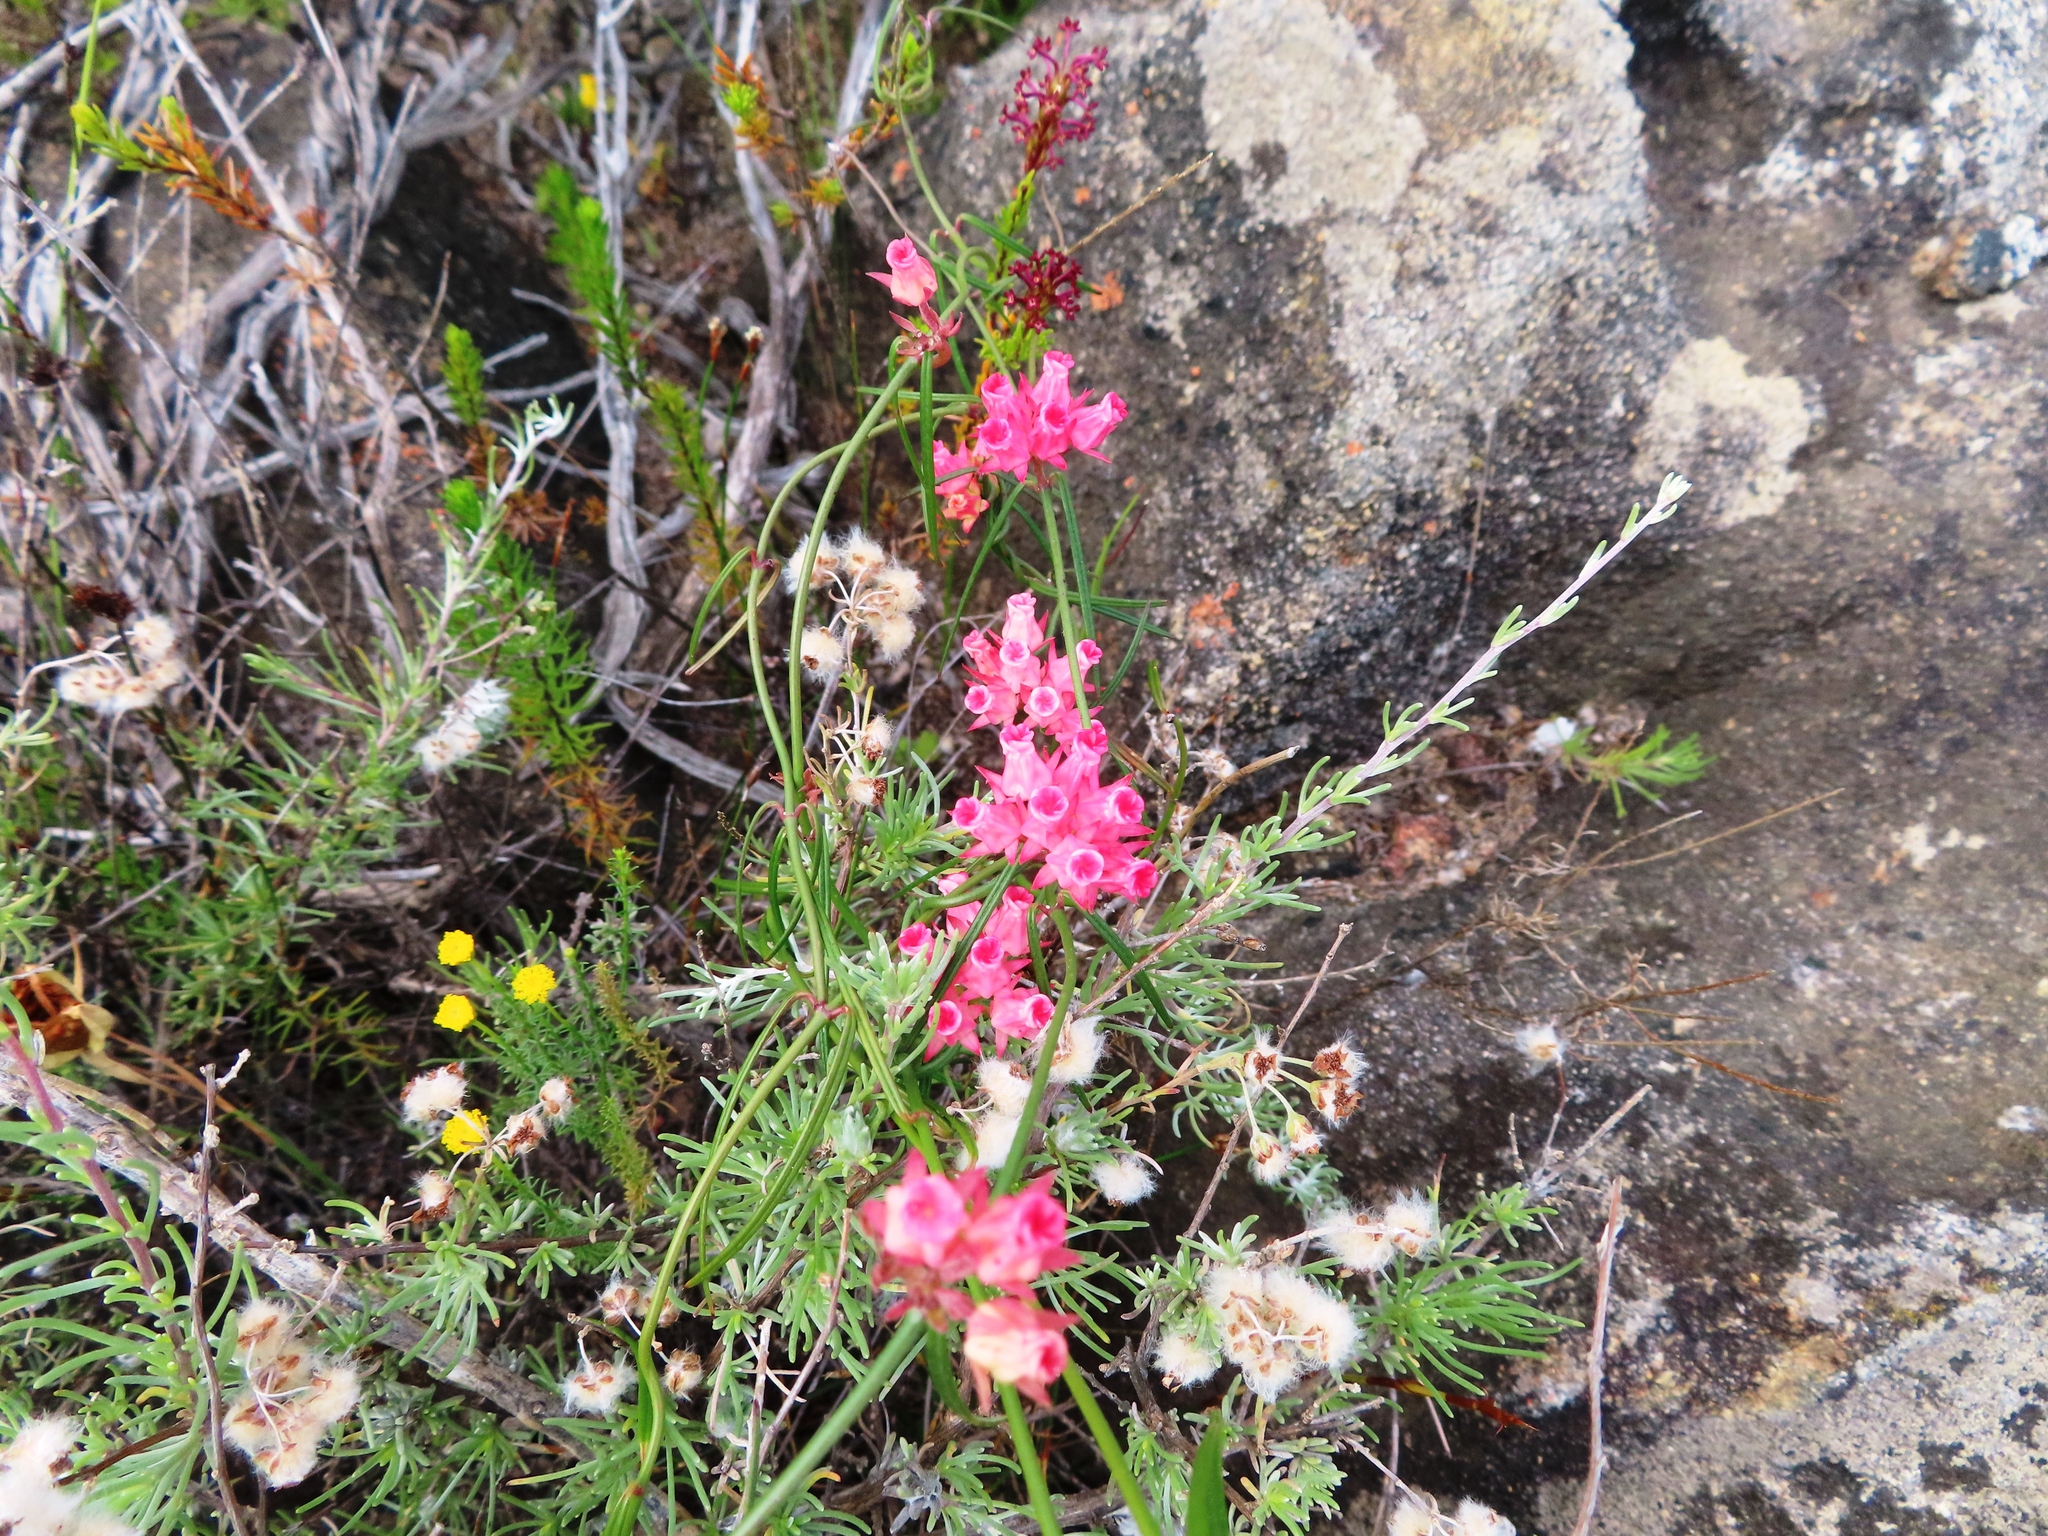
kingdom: Plantae
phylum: Tracheophyta
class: Magnoliopsida
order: Gentianales
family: Apocynaceae
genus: Microloma
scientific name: Microloma tenuifolium
